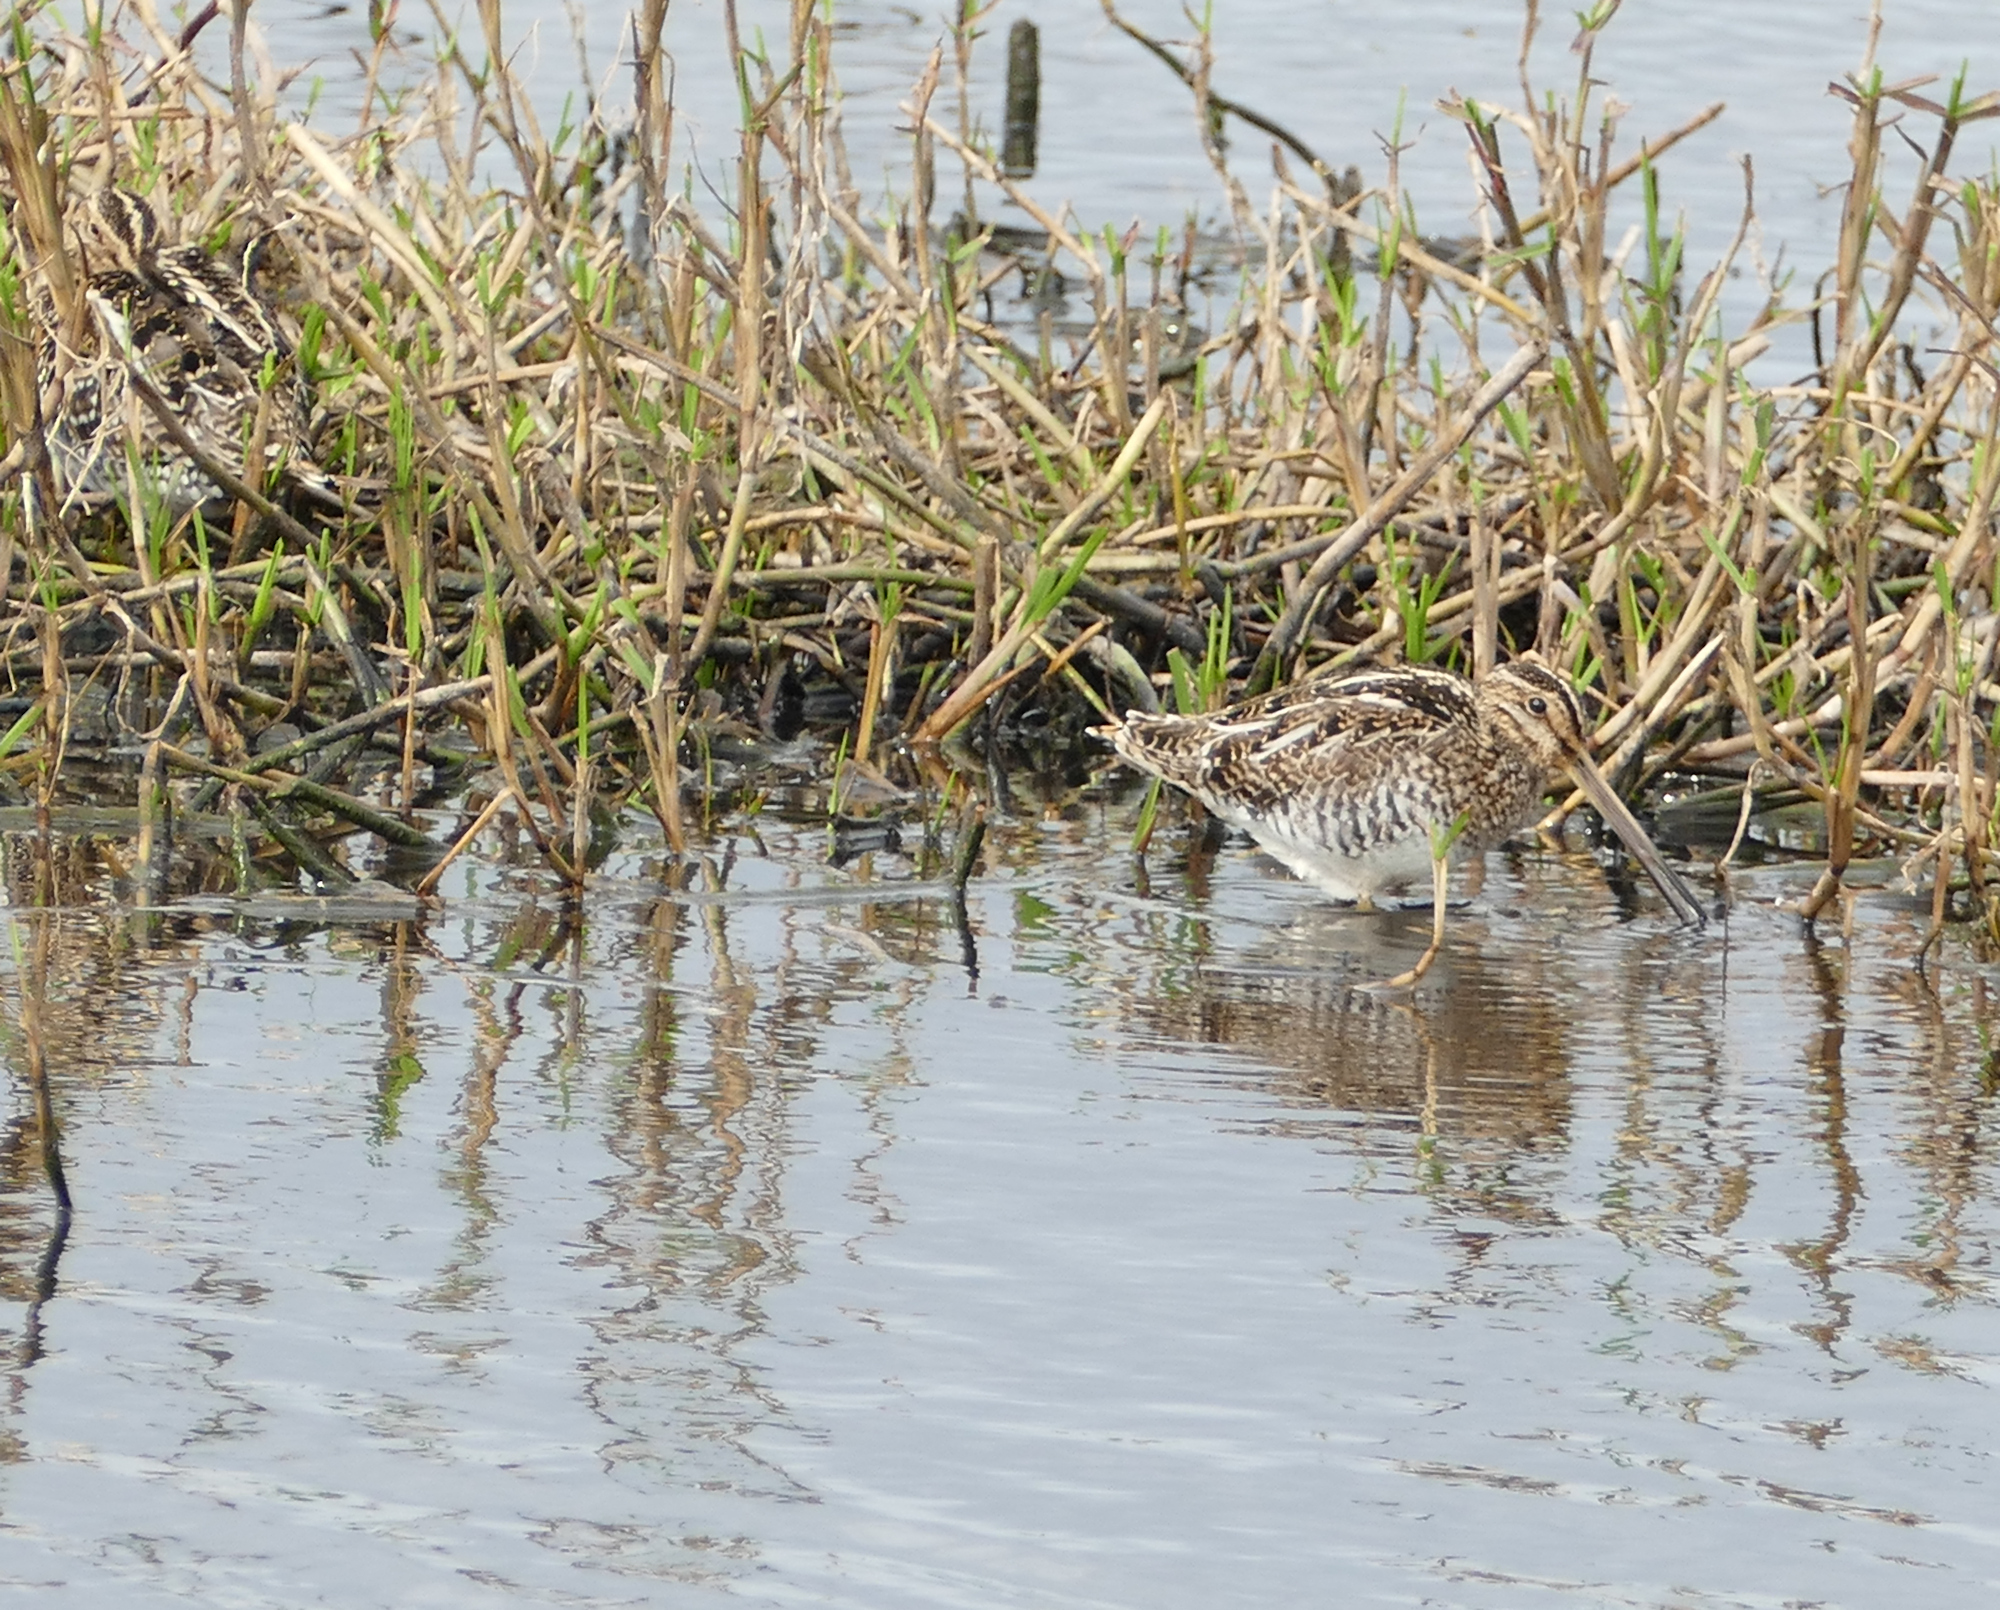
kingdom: Animalia
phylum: Chordata
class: Aves
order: Charadriiformes
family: Scolopacidae
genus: Gallinago
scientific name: Gallinago delicata
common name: Wilson's snipe
